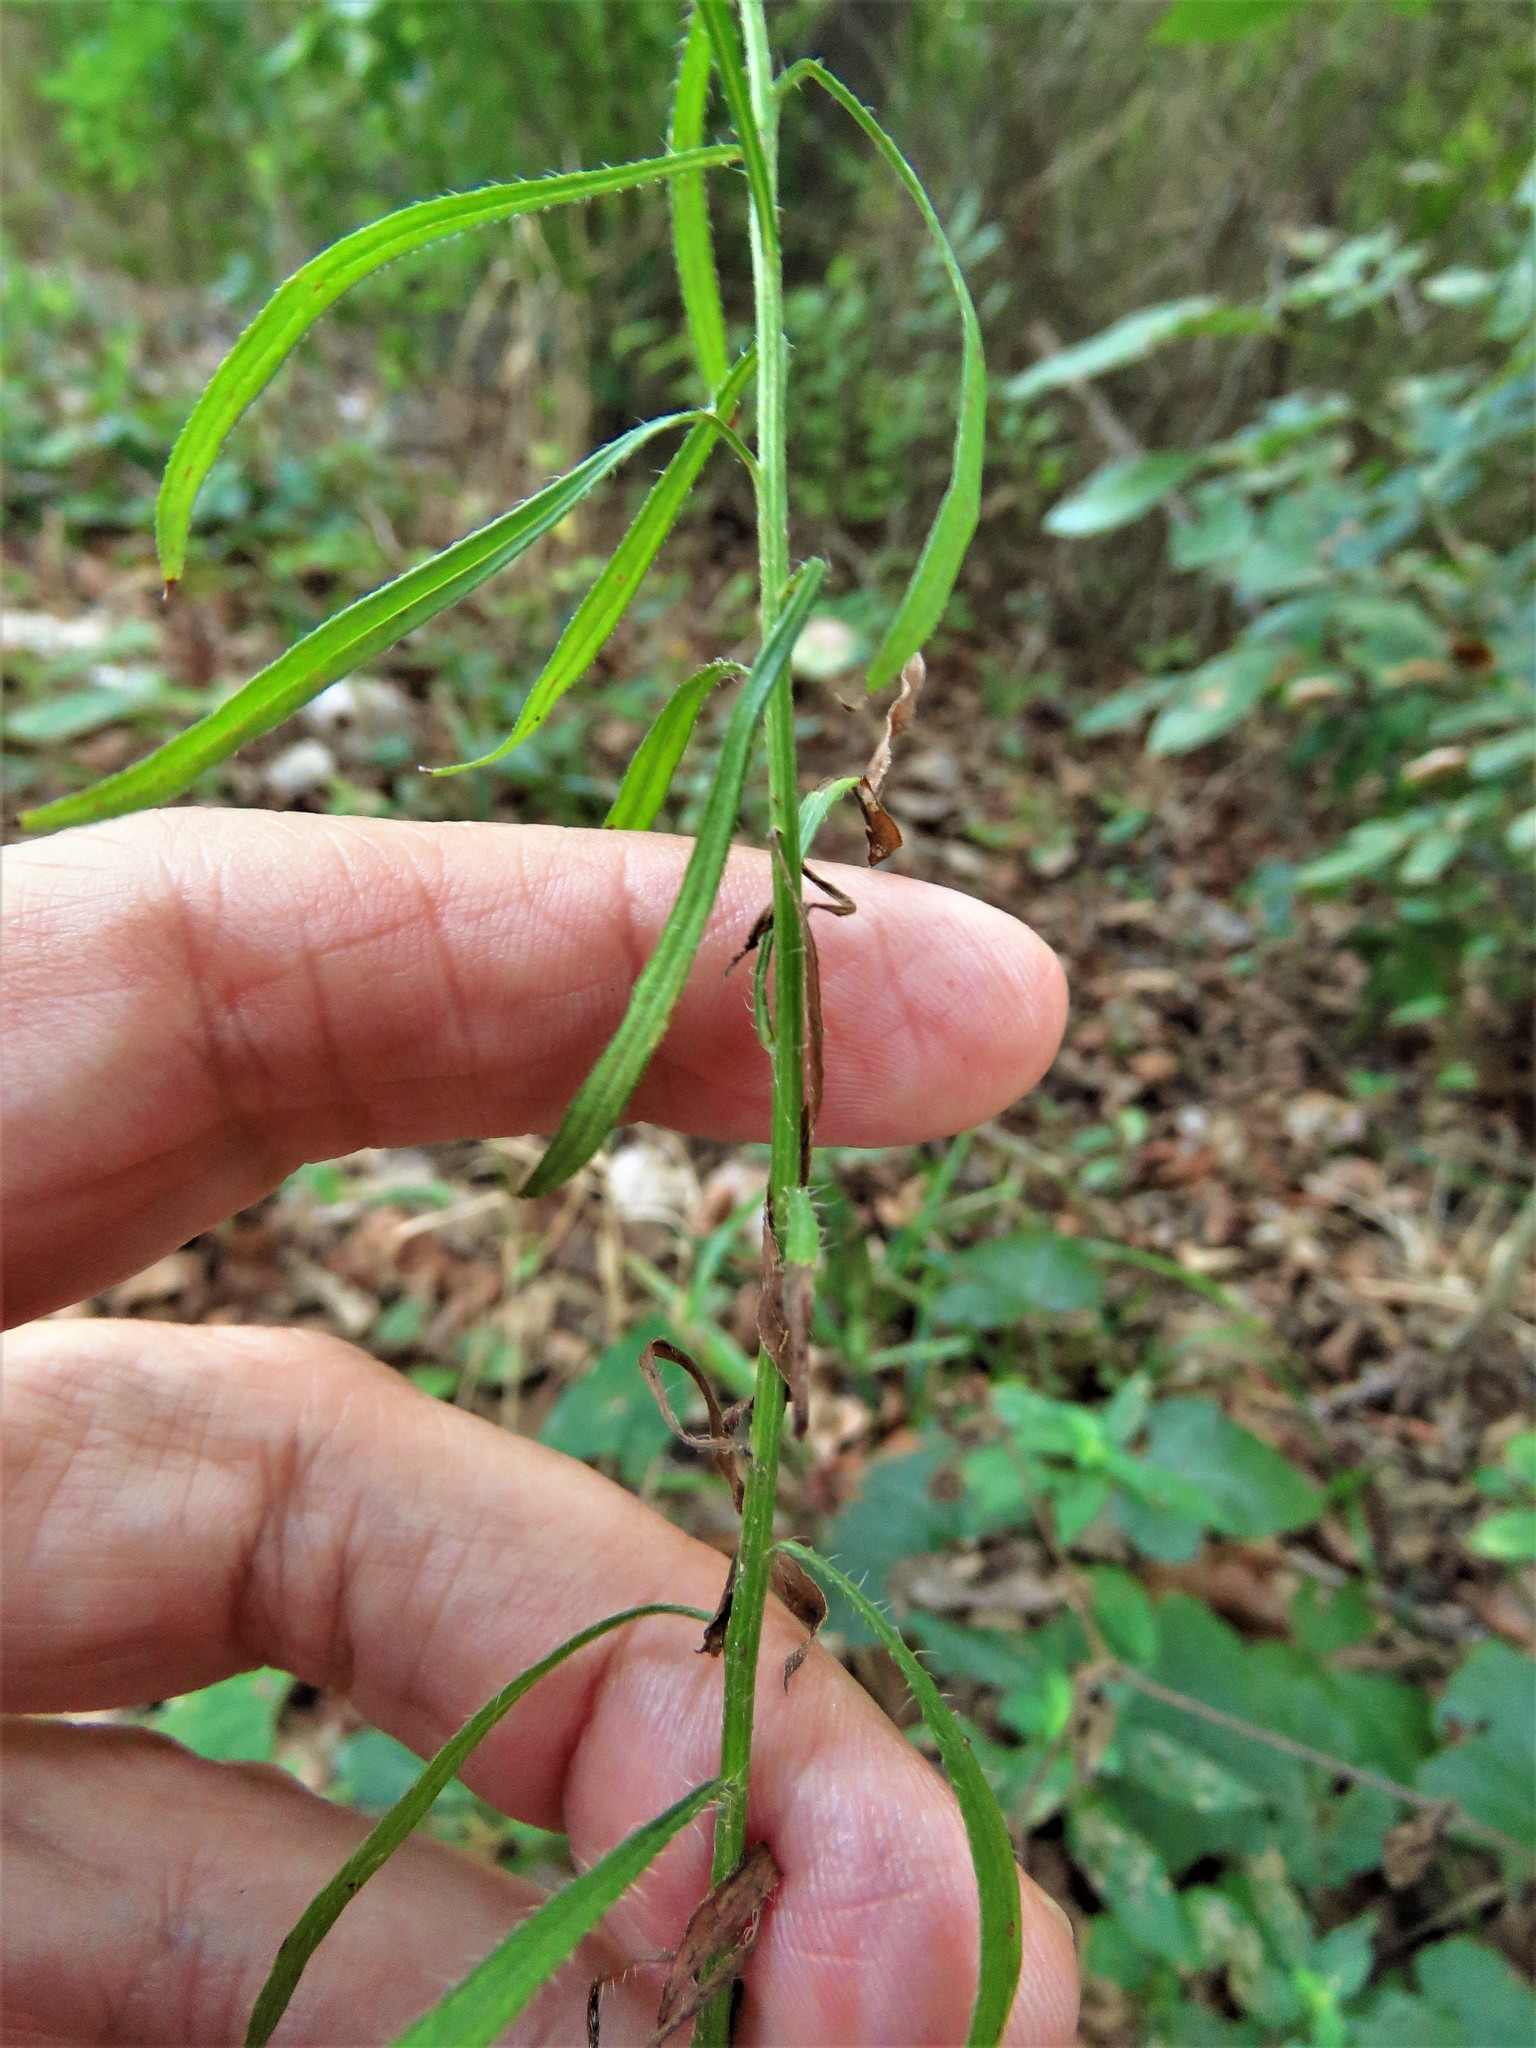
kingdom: Plantae
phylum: Tracheophyta
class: Magnoliopsida
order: Asterales
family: Asteraceae
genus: Erigeron
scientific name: Erigeron canadensis
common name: Canadian fleabane
